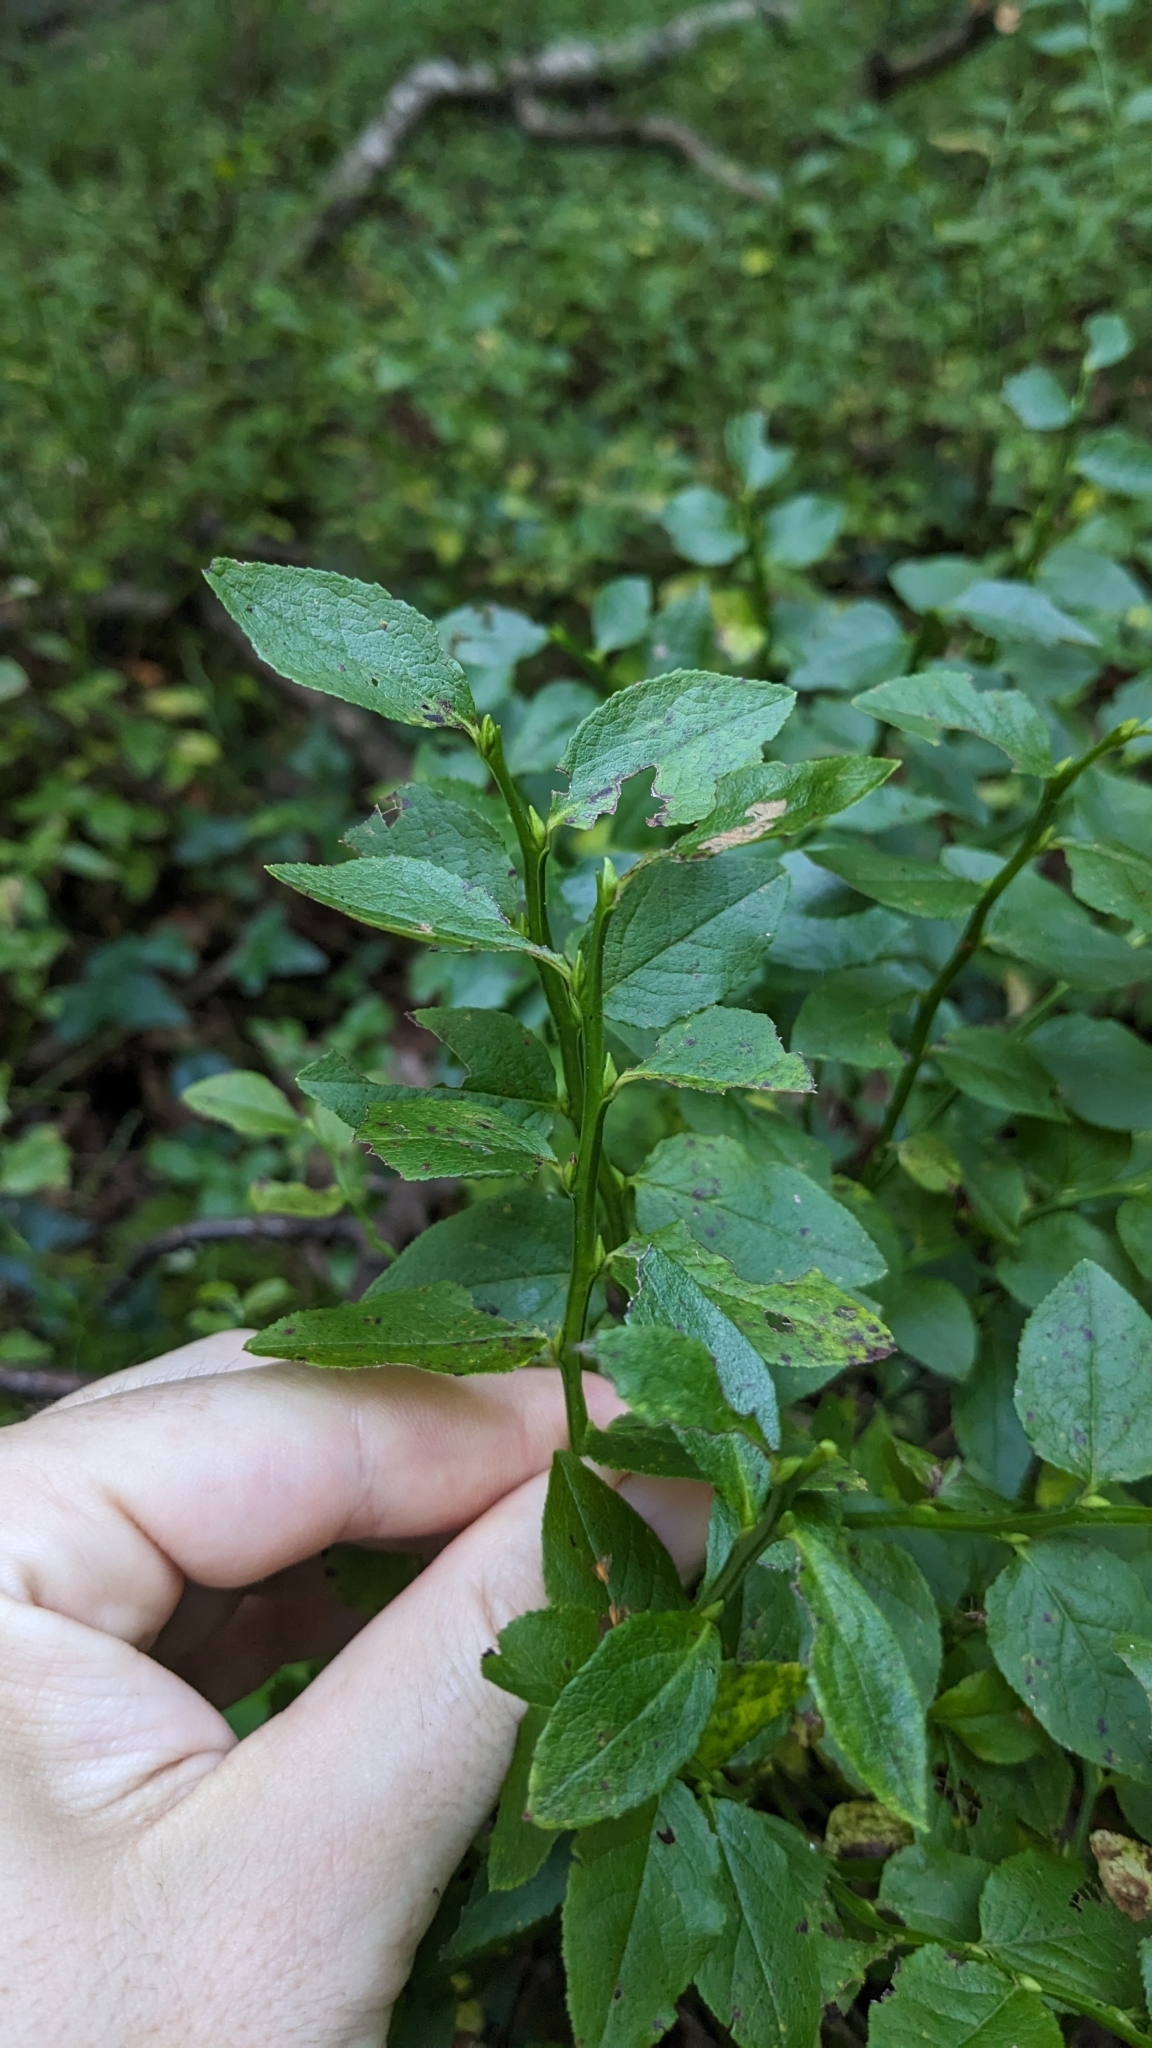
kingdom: Plantae
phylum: Tracheophyta
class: Magnoliopsida
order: Ericales
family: Ericaceae
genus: Vaccinium
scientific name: Vaccinium myrtillus
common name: Bilberry
